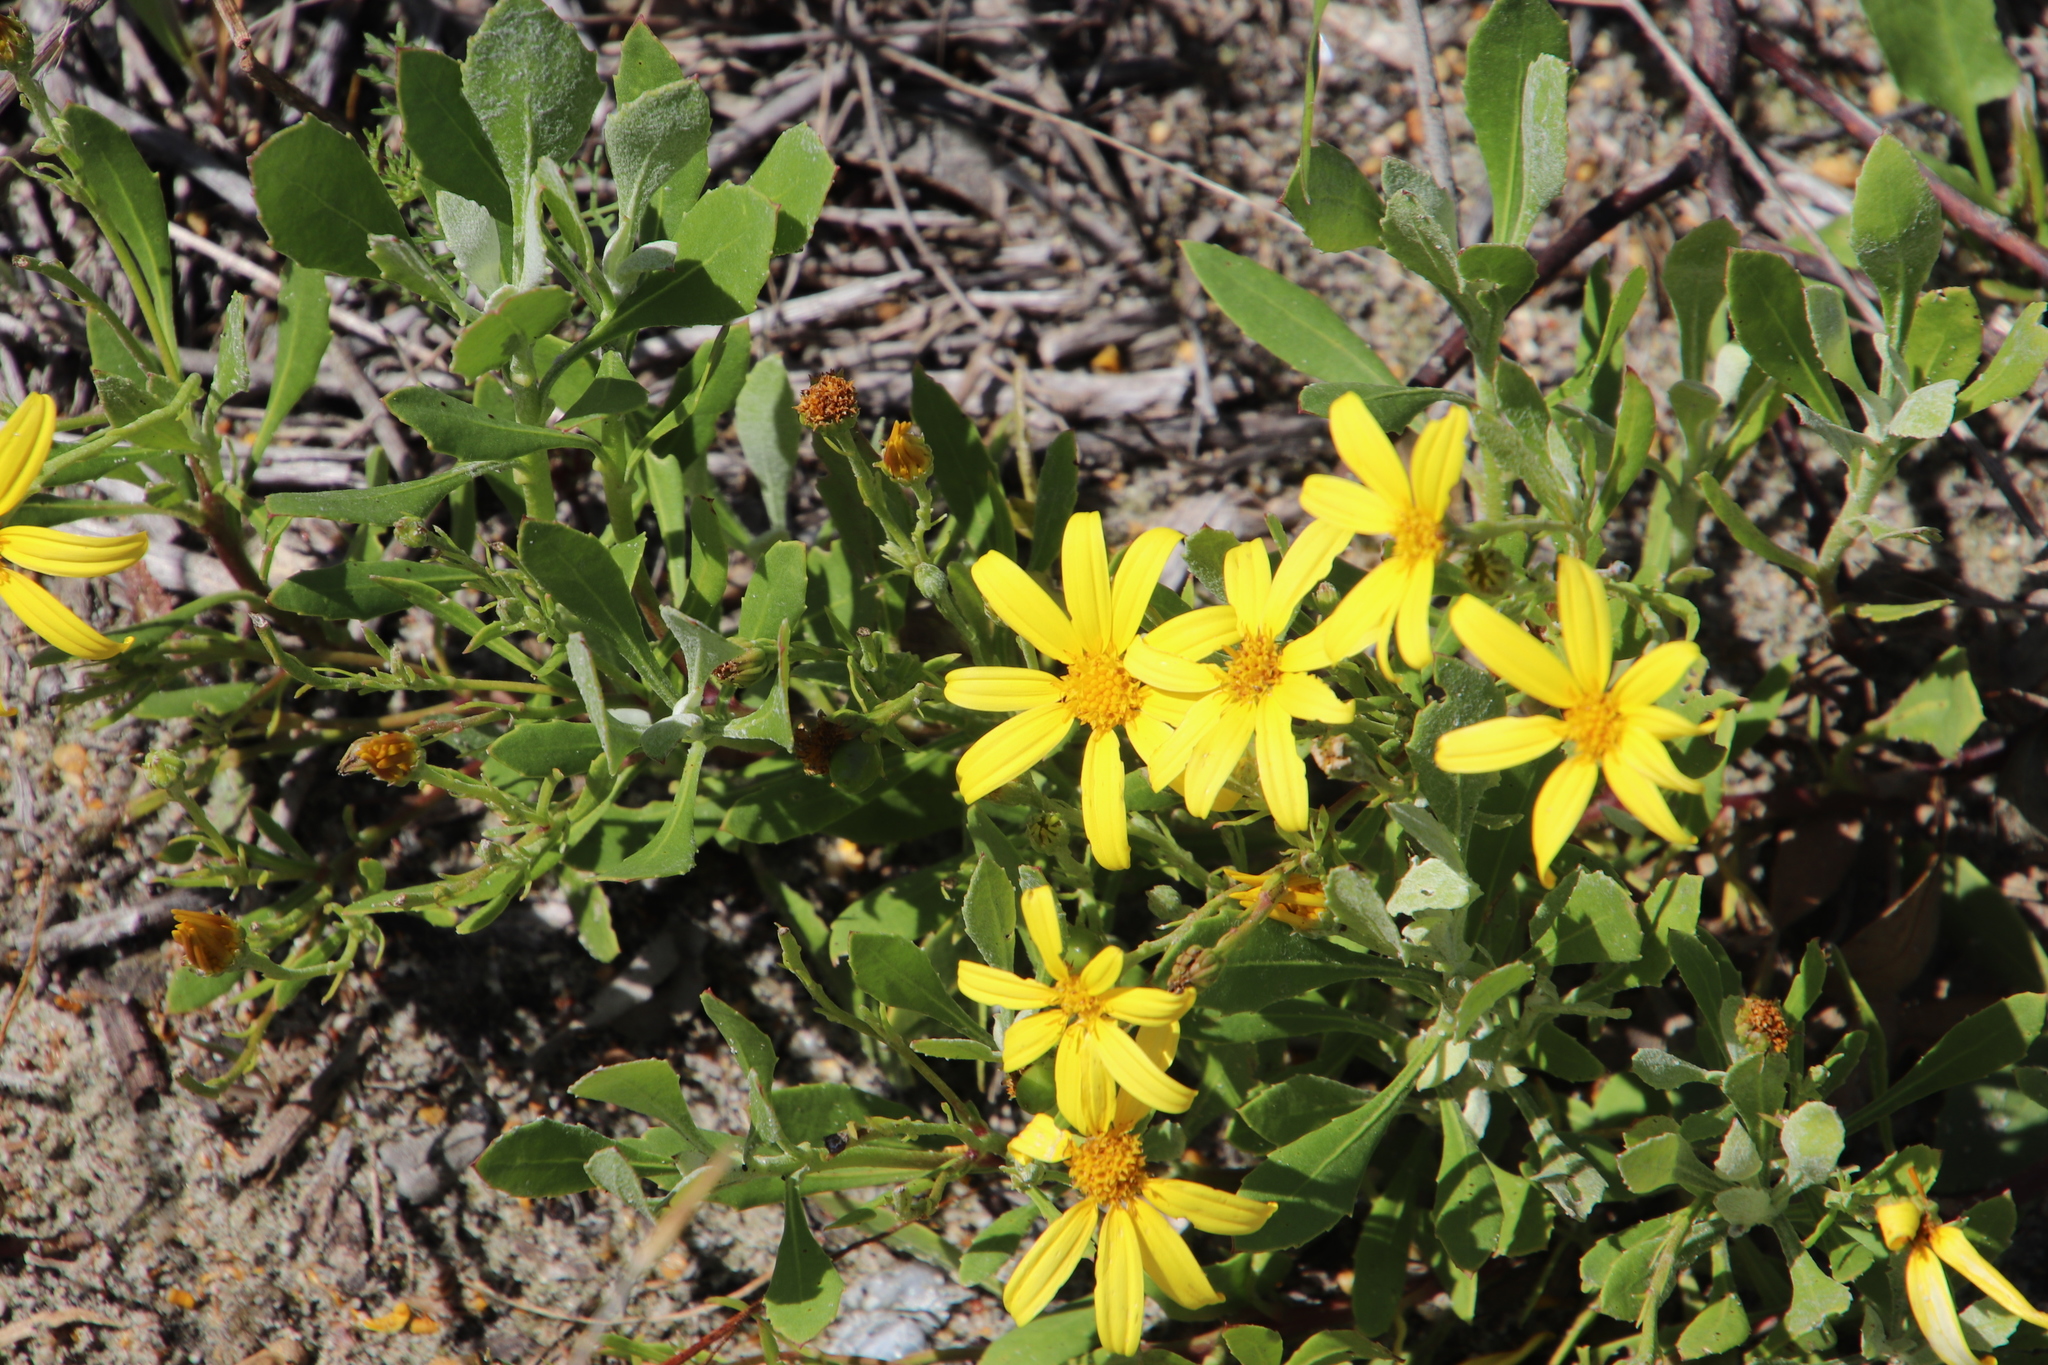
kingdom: Plantae
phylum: Tracheophyta
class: Magnoliopsida
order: Asterales
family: Asteraceae
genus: Osteospermum
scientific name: Osteospermum moniliferum
